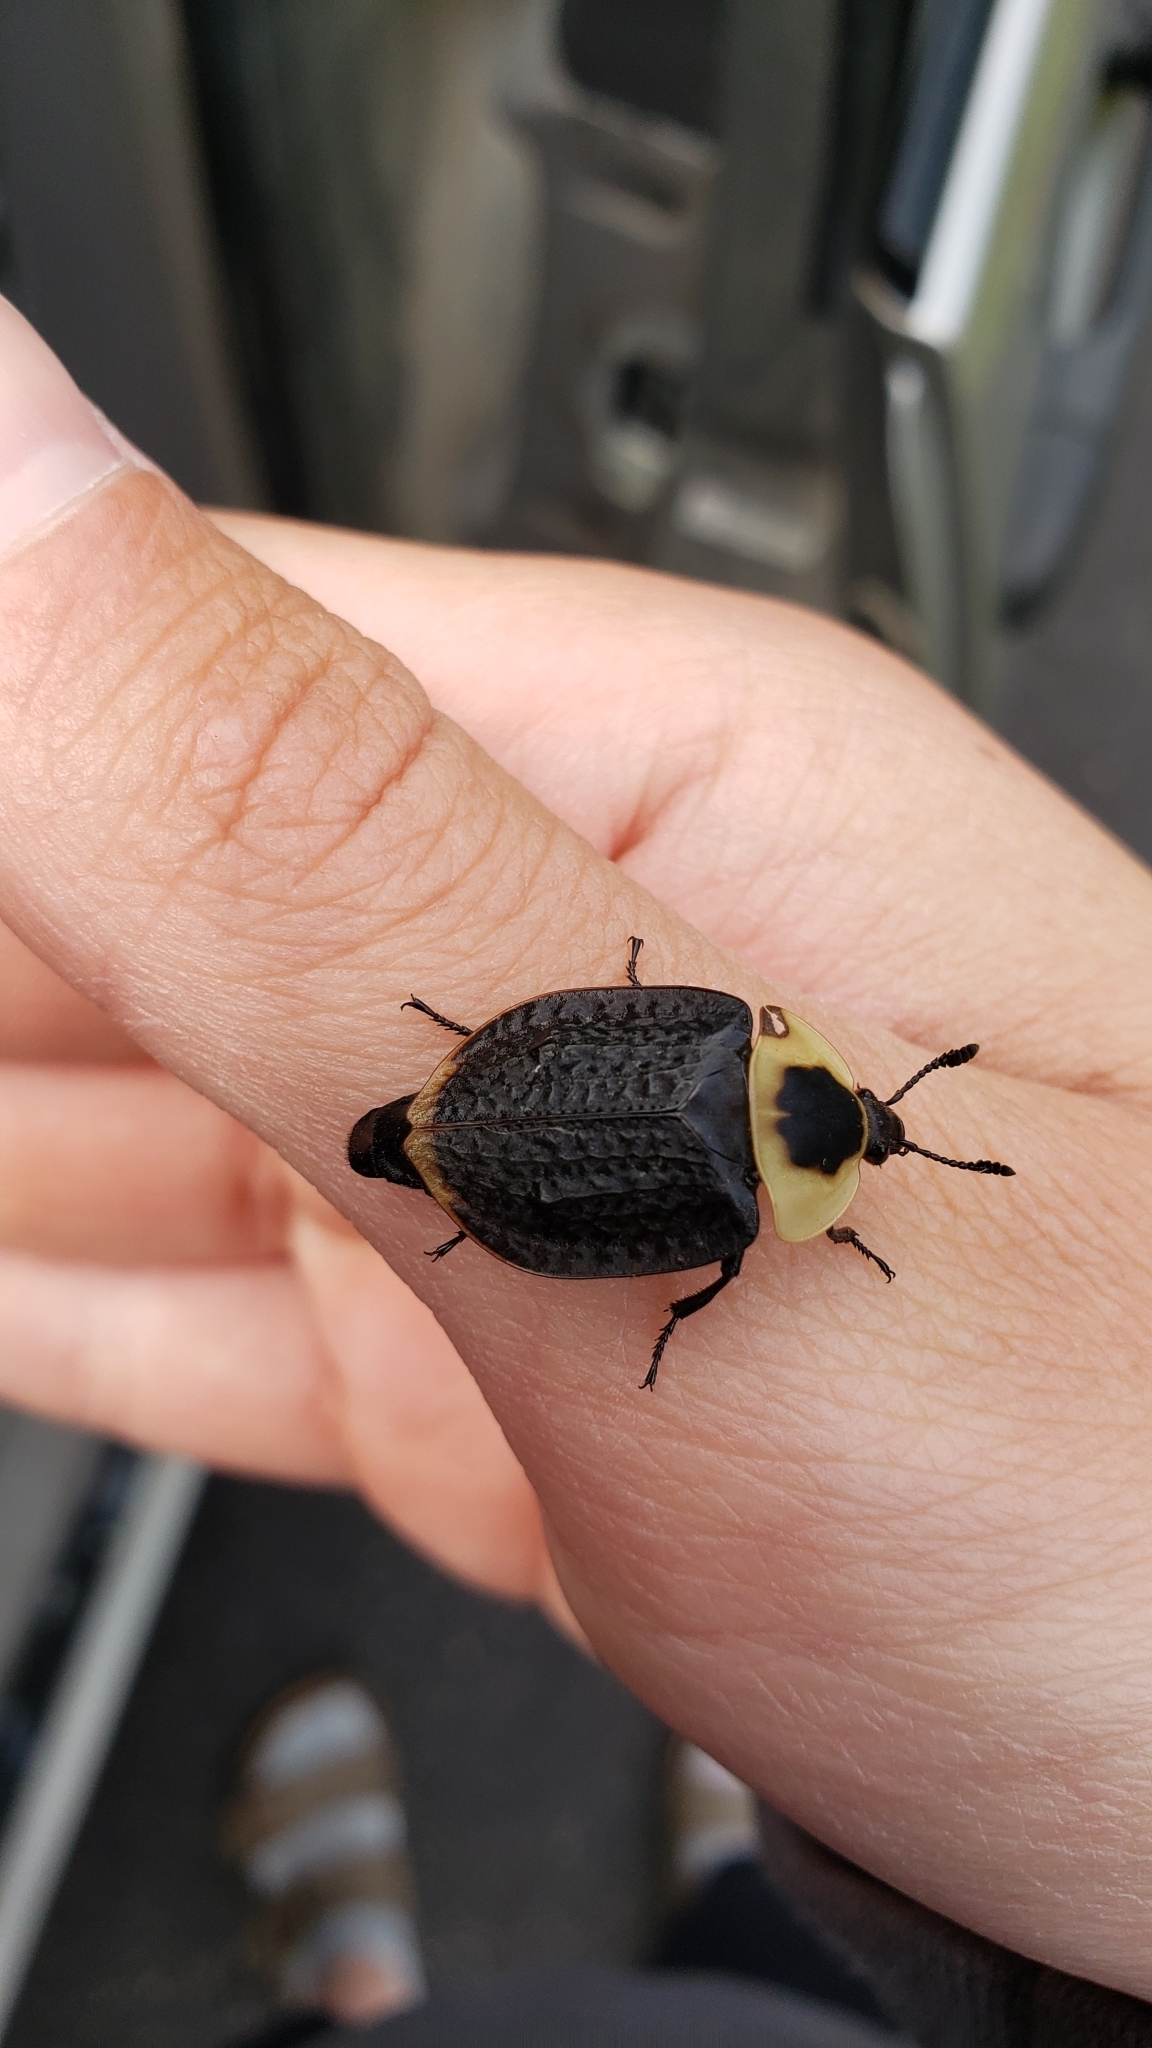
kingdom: Animalia
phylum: Arthropoda
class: Insecta
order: Coleoptera
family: Staphylinidae
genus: Necrophila
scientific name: Necrophila americana
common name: American carrion beetle
